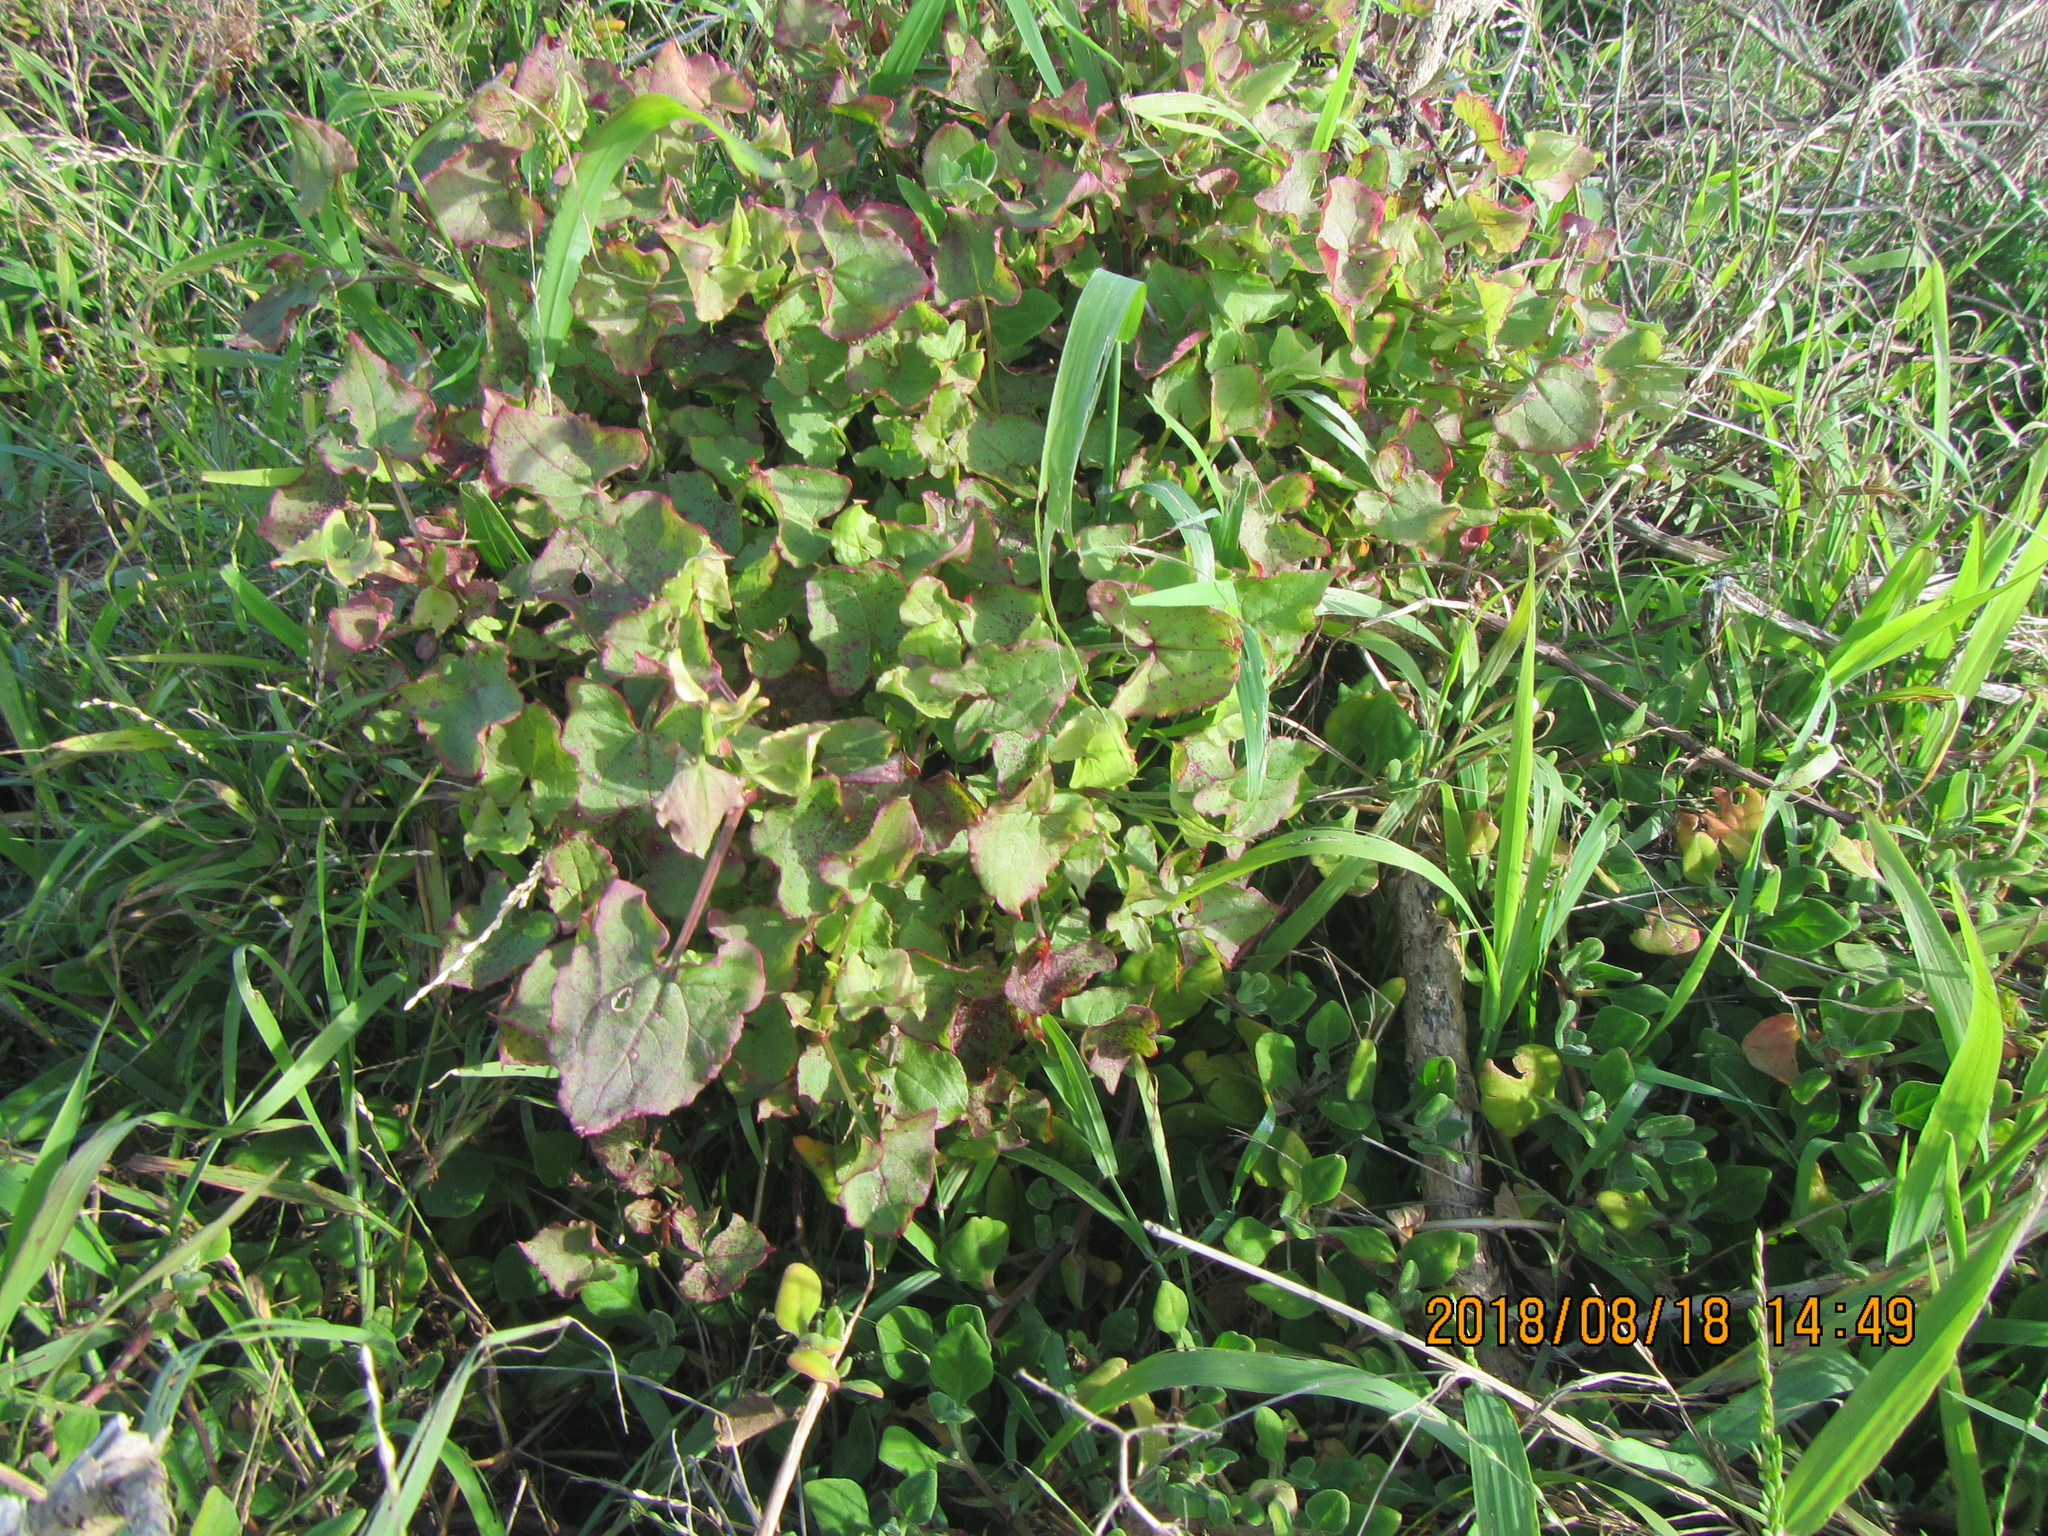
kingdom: Plantae
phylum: Tracheophyta
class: Magnoliopsida
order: Caryophyllales
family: Polygonaceae
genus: Rumex
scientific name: Rumex sagittatus
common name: Climbing dock
